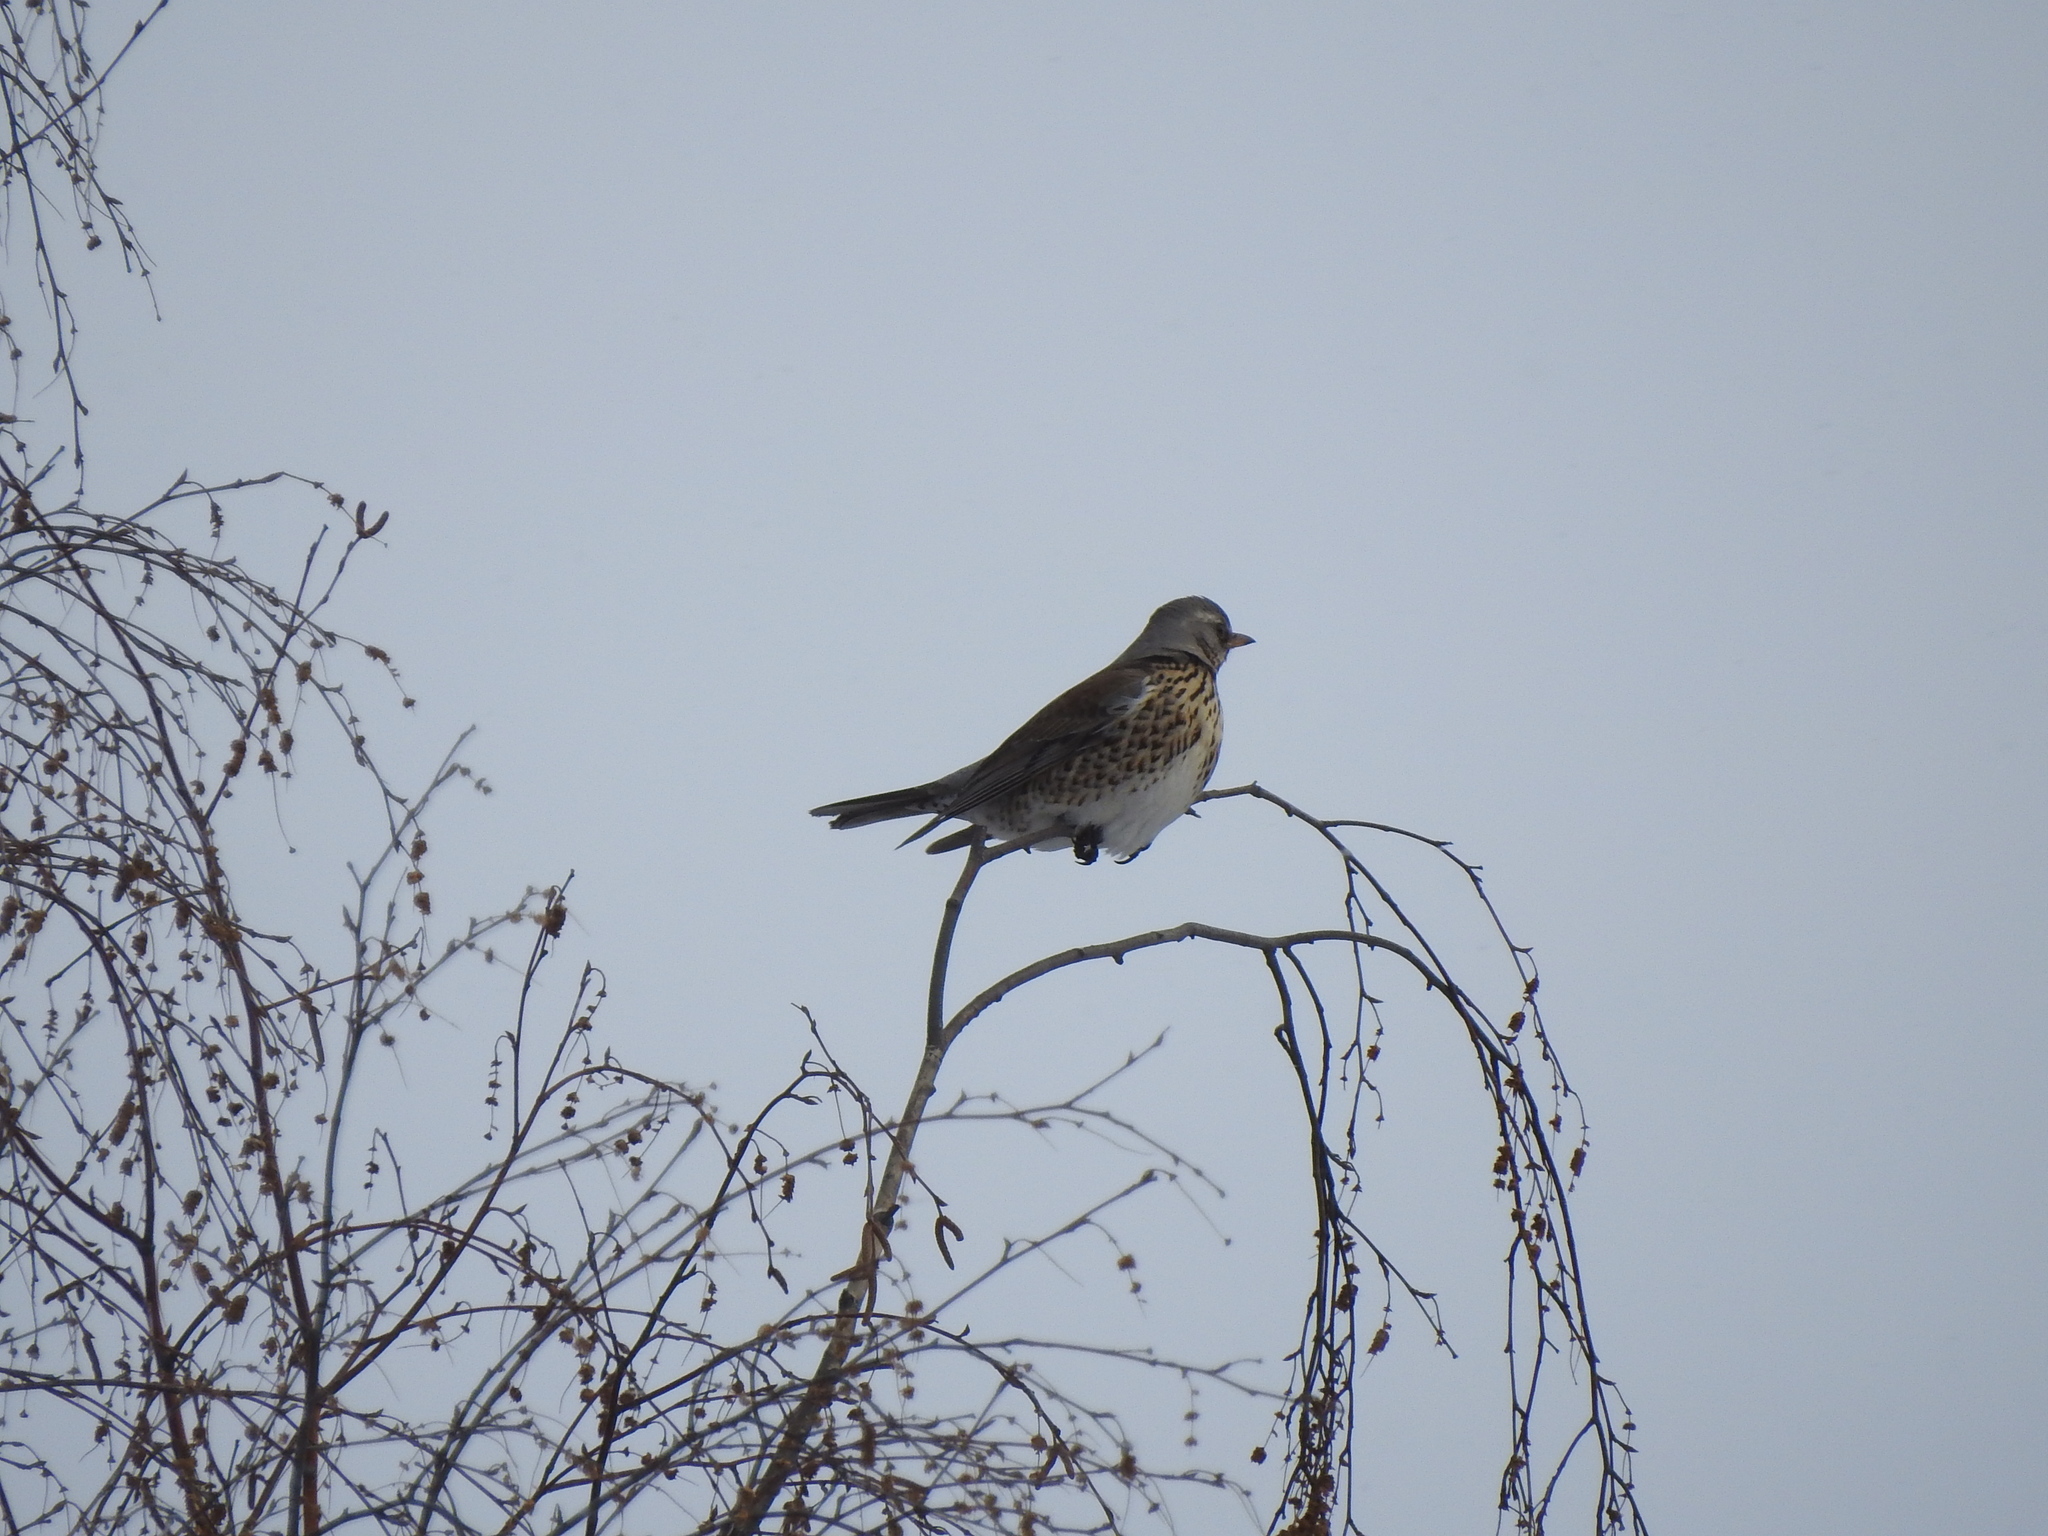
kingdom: Animalia
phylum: Chordata
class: Aves
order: Passeriformes
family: Turdidae
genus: Turdus
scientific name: Turdus pilaris
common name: Fieldfare
